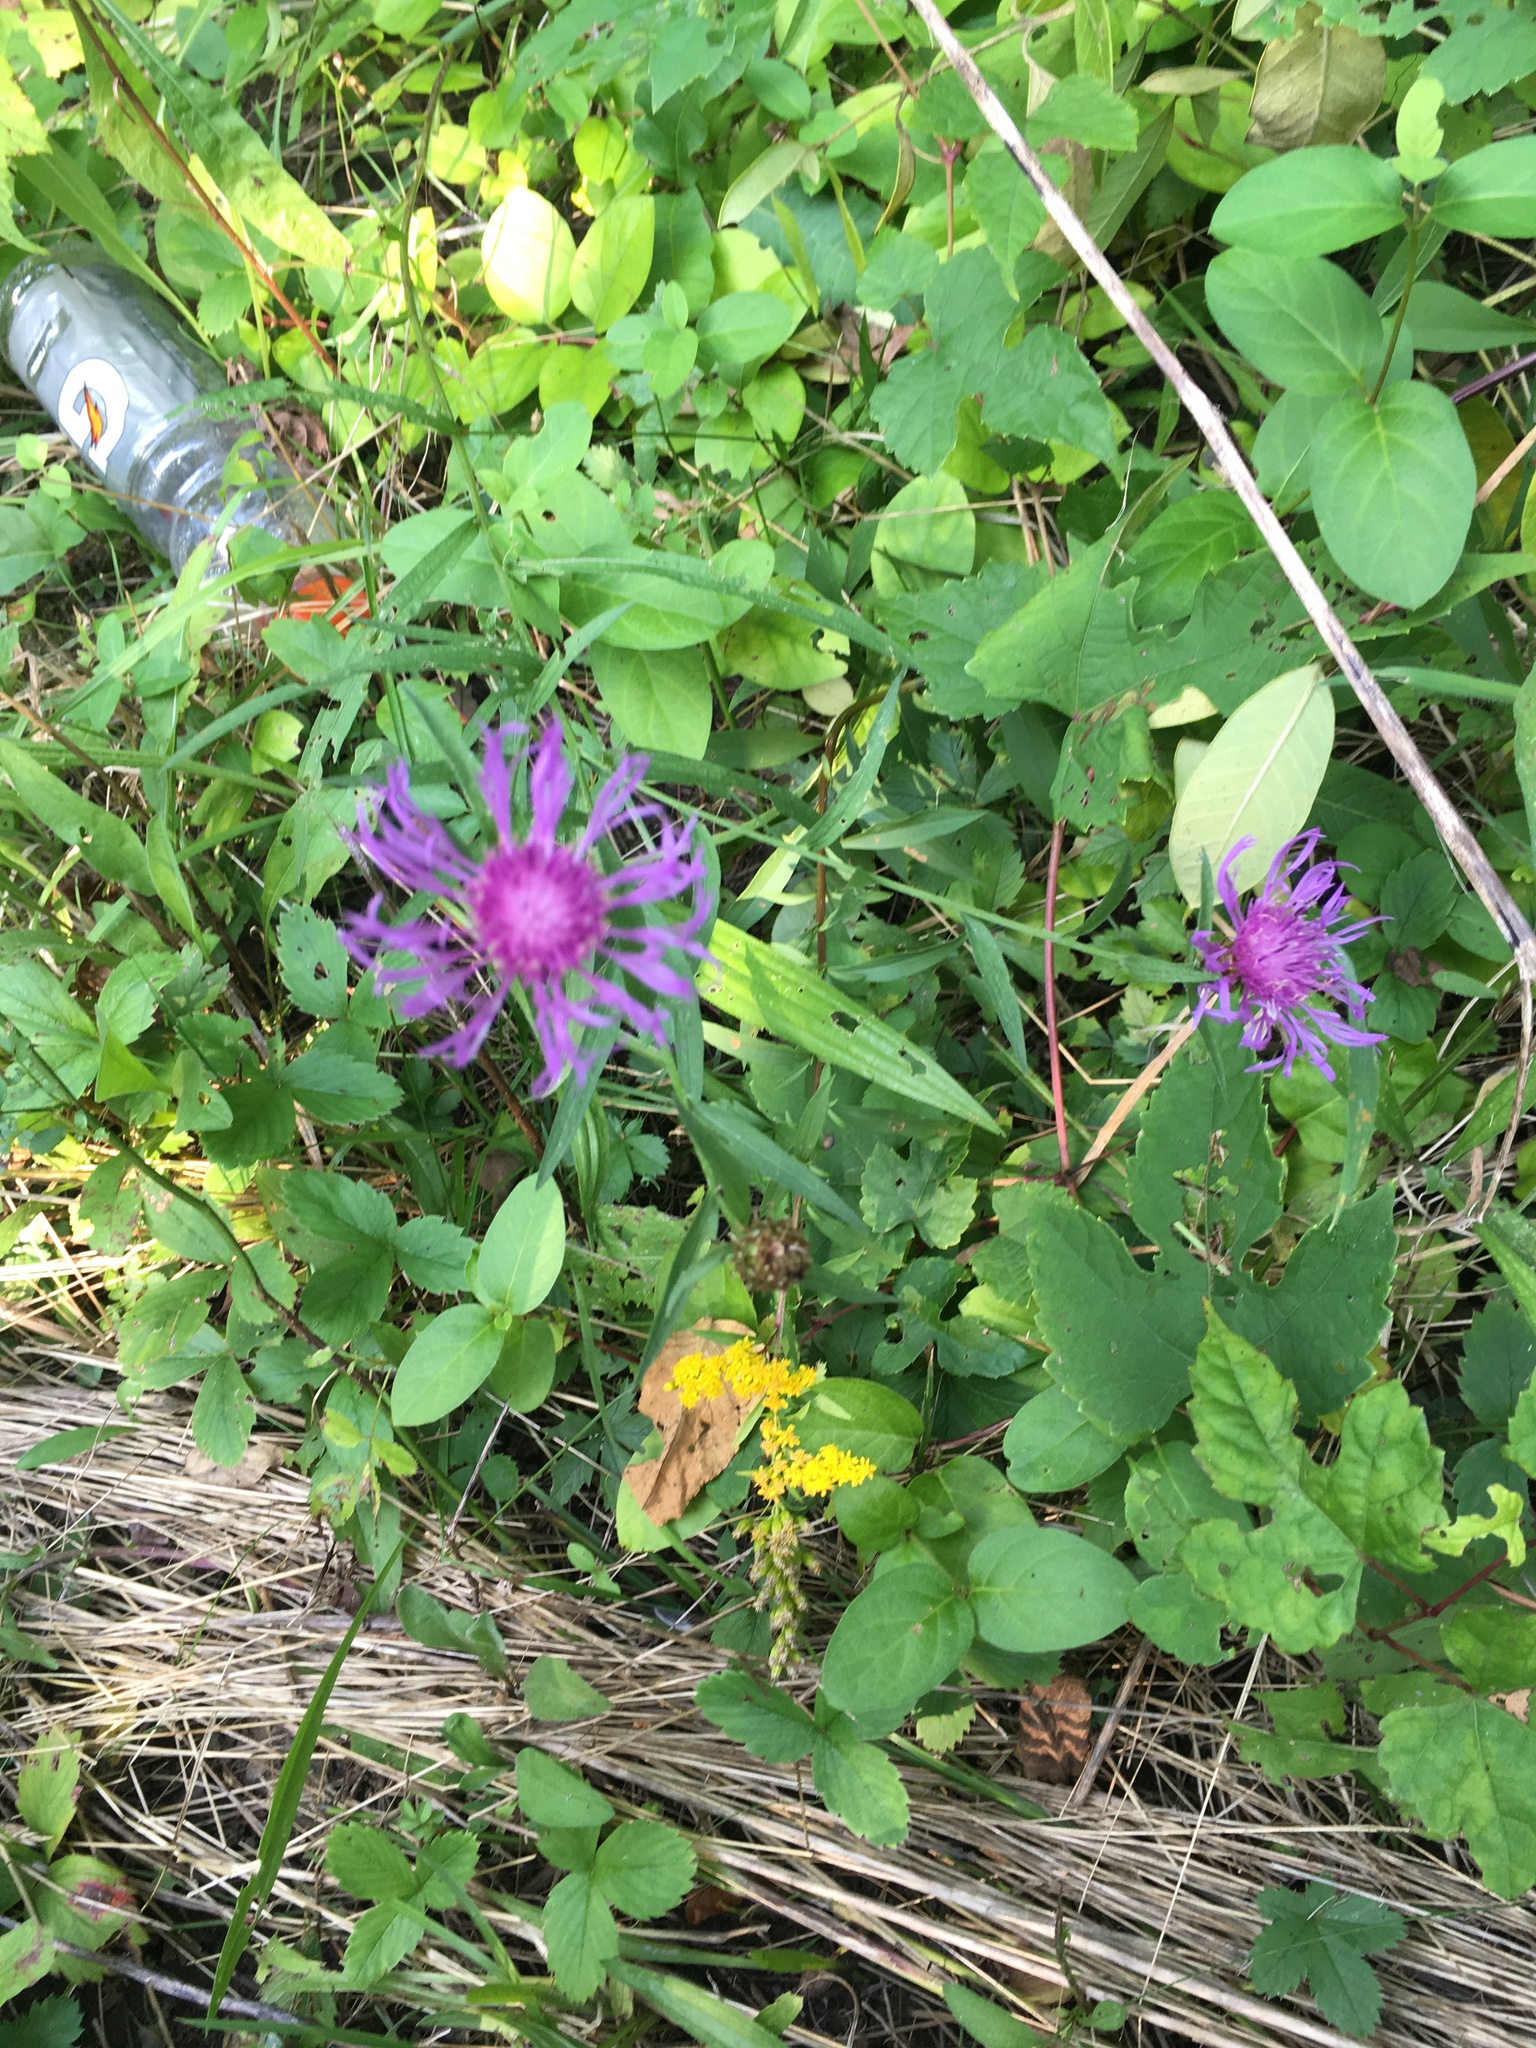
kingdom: Plantae
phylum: Tracheophyta
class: Magnoliopsida
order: Asterales
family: Asteraceae
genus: Centaurea
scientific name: Centaurea nigra
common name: Lesser knapweed
